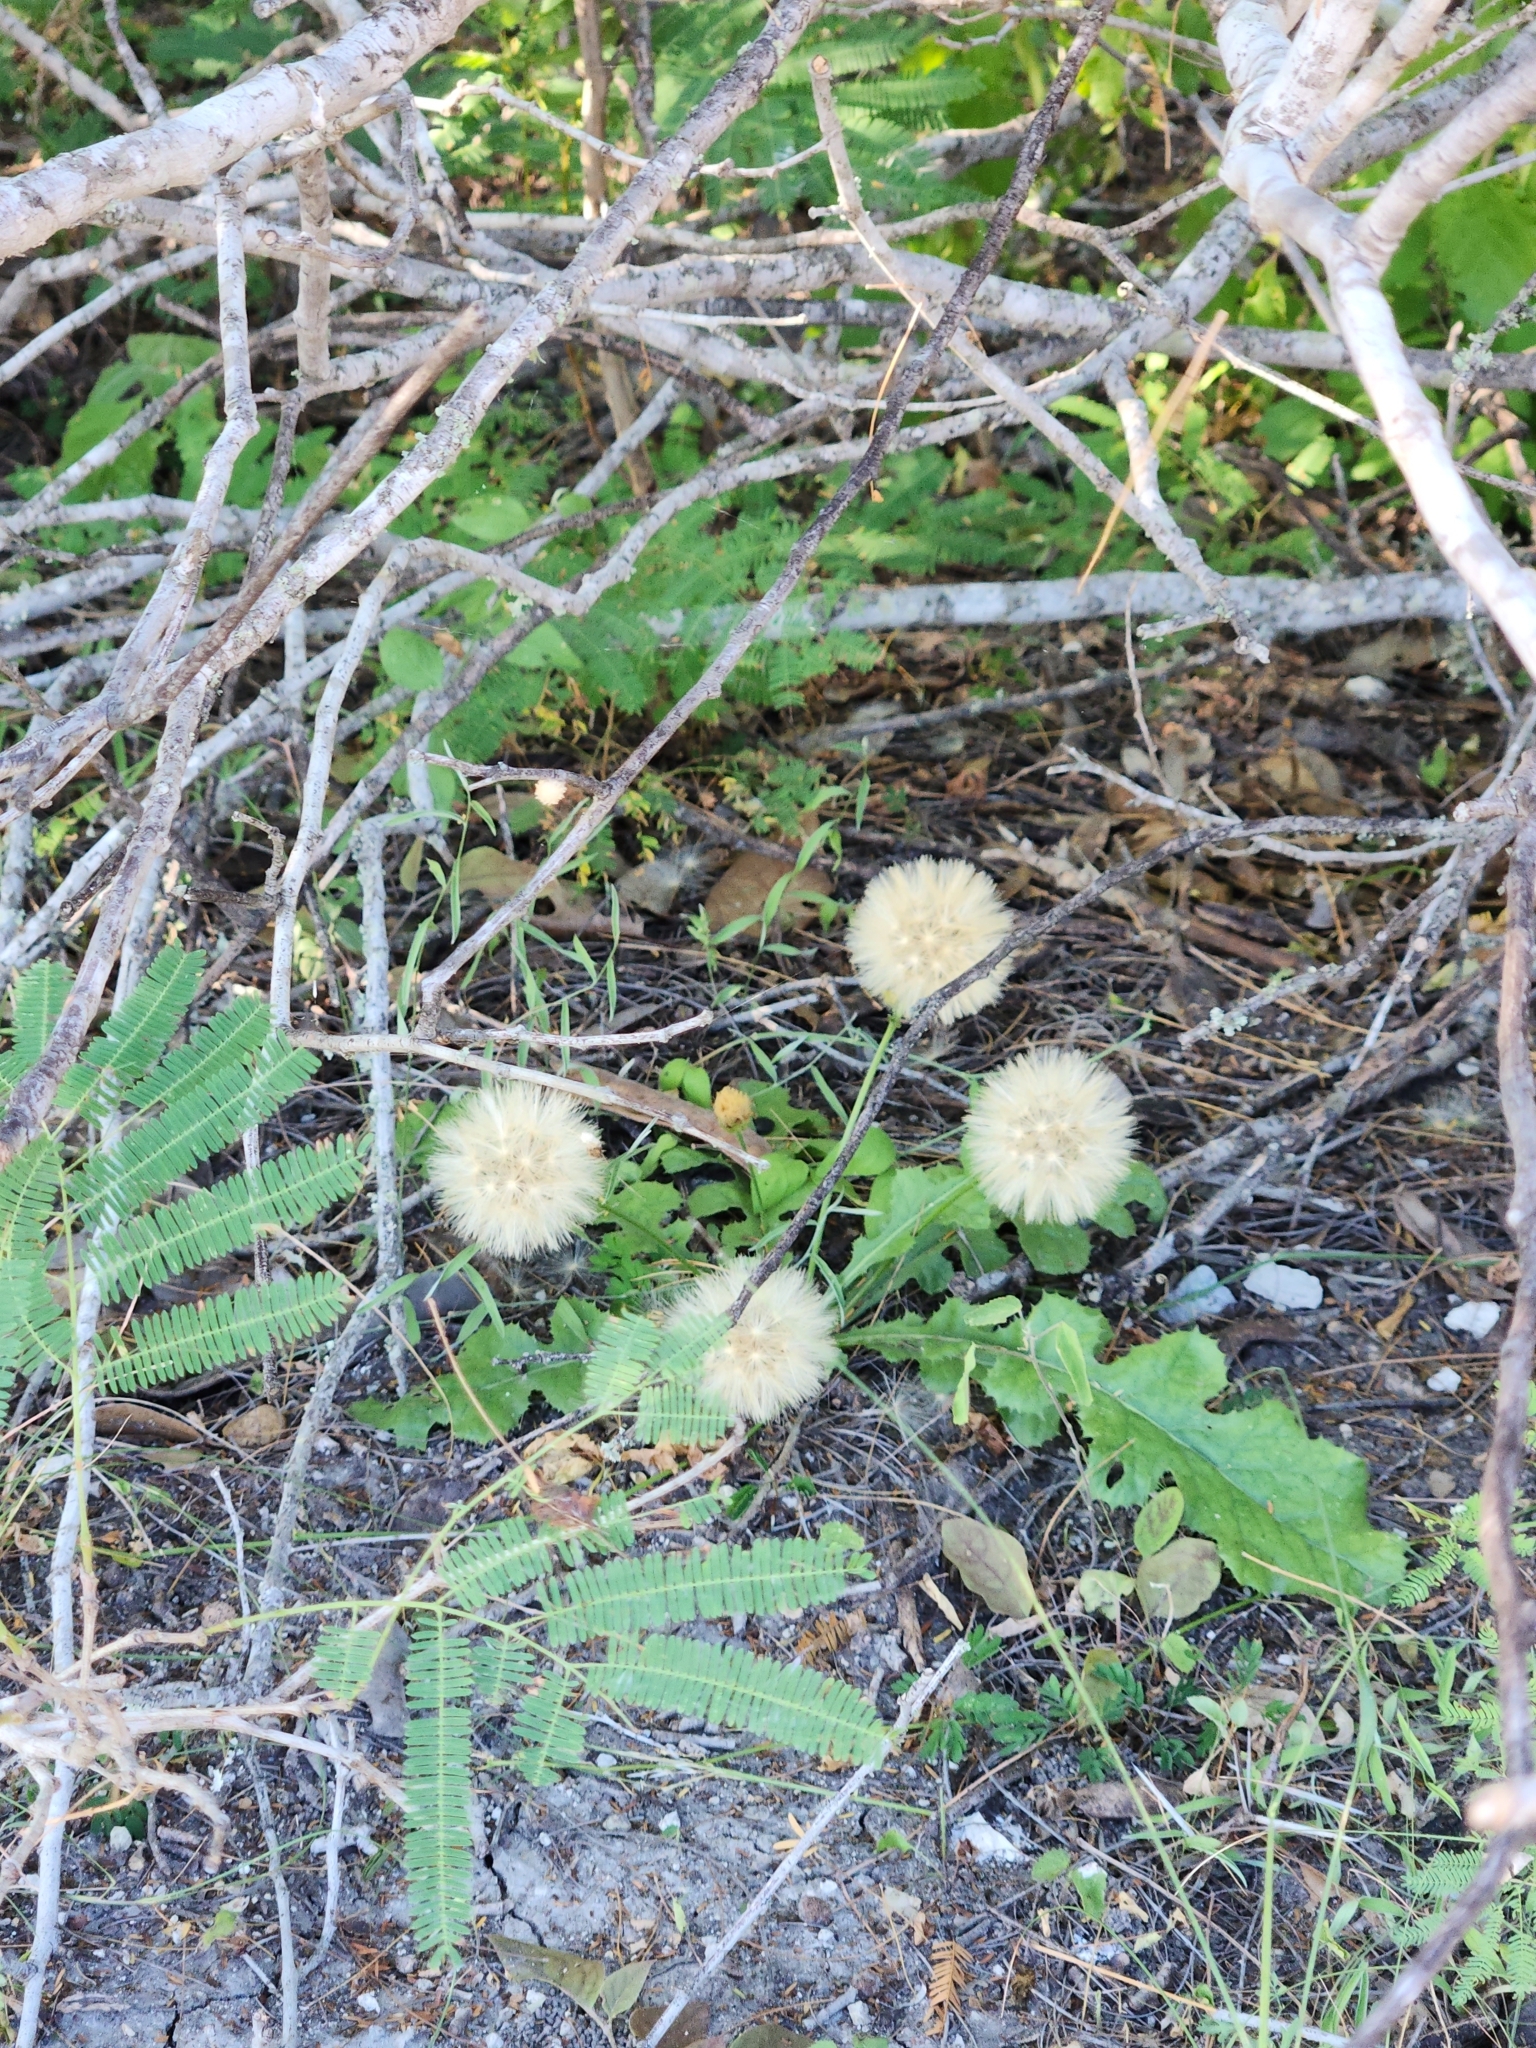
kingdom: Plantae
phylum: Tracheophyta
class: Magnoliopsida
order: Asterales
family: Asteraceae
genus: Acourtia
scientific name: Acourtia runcinata
